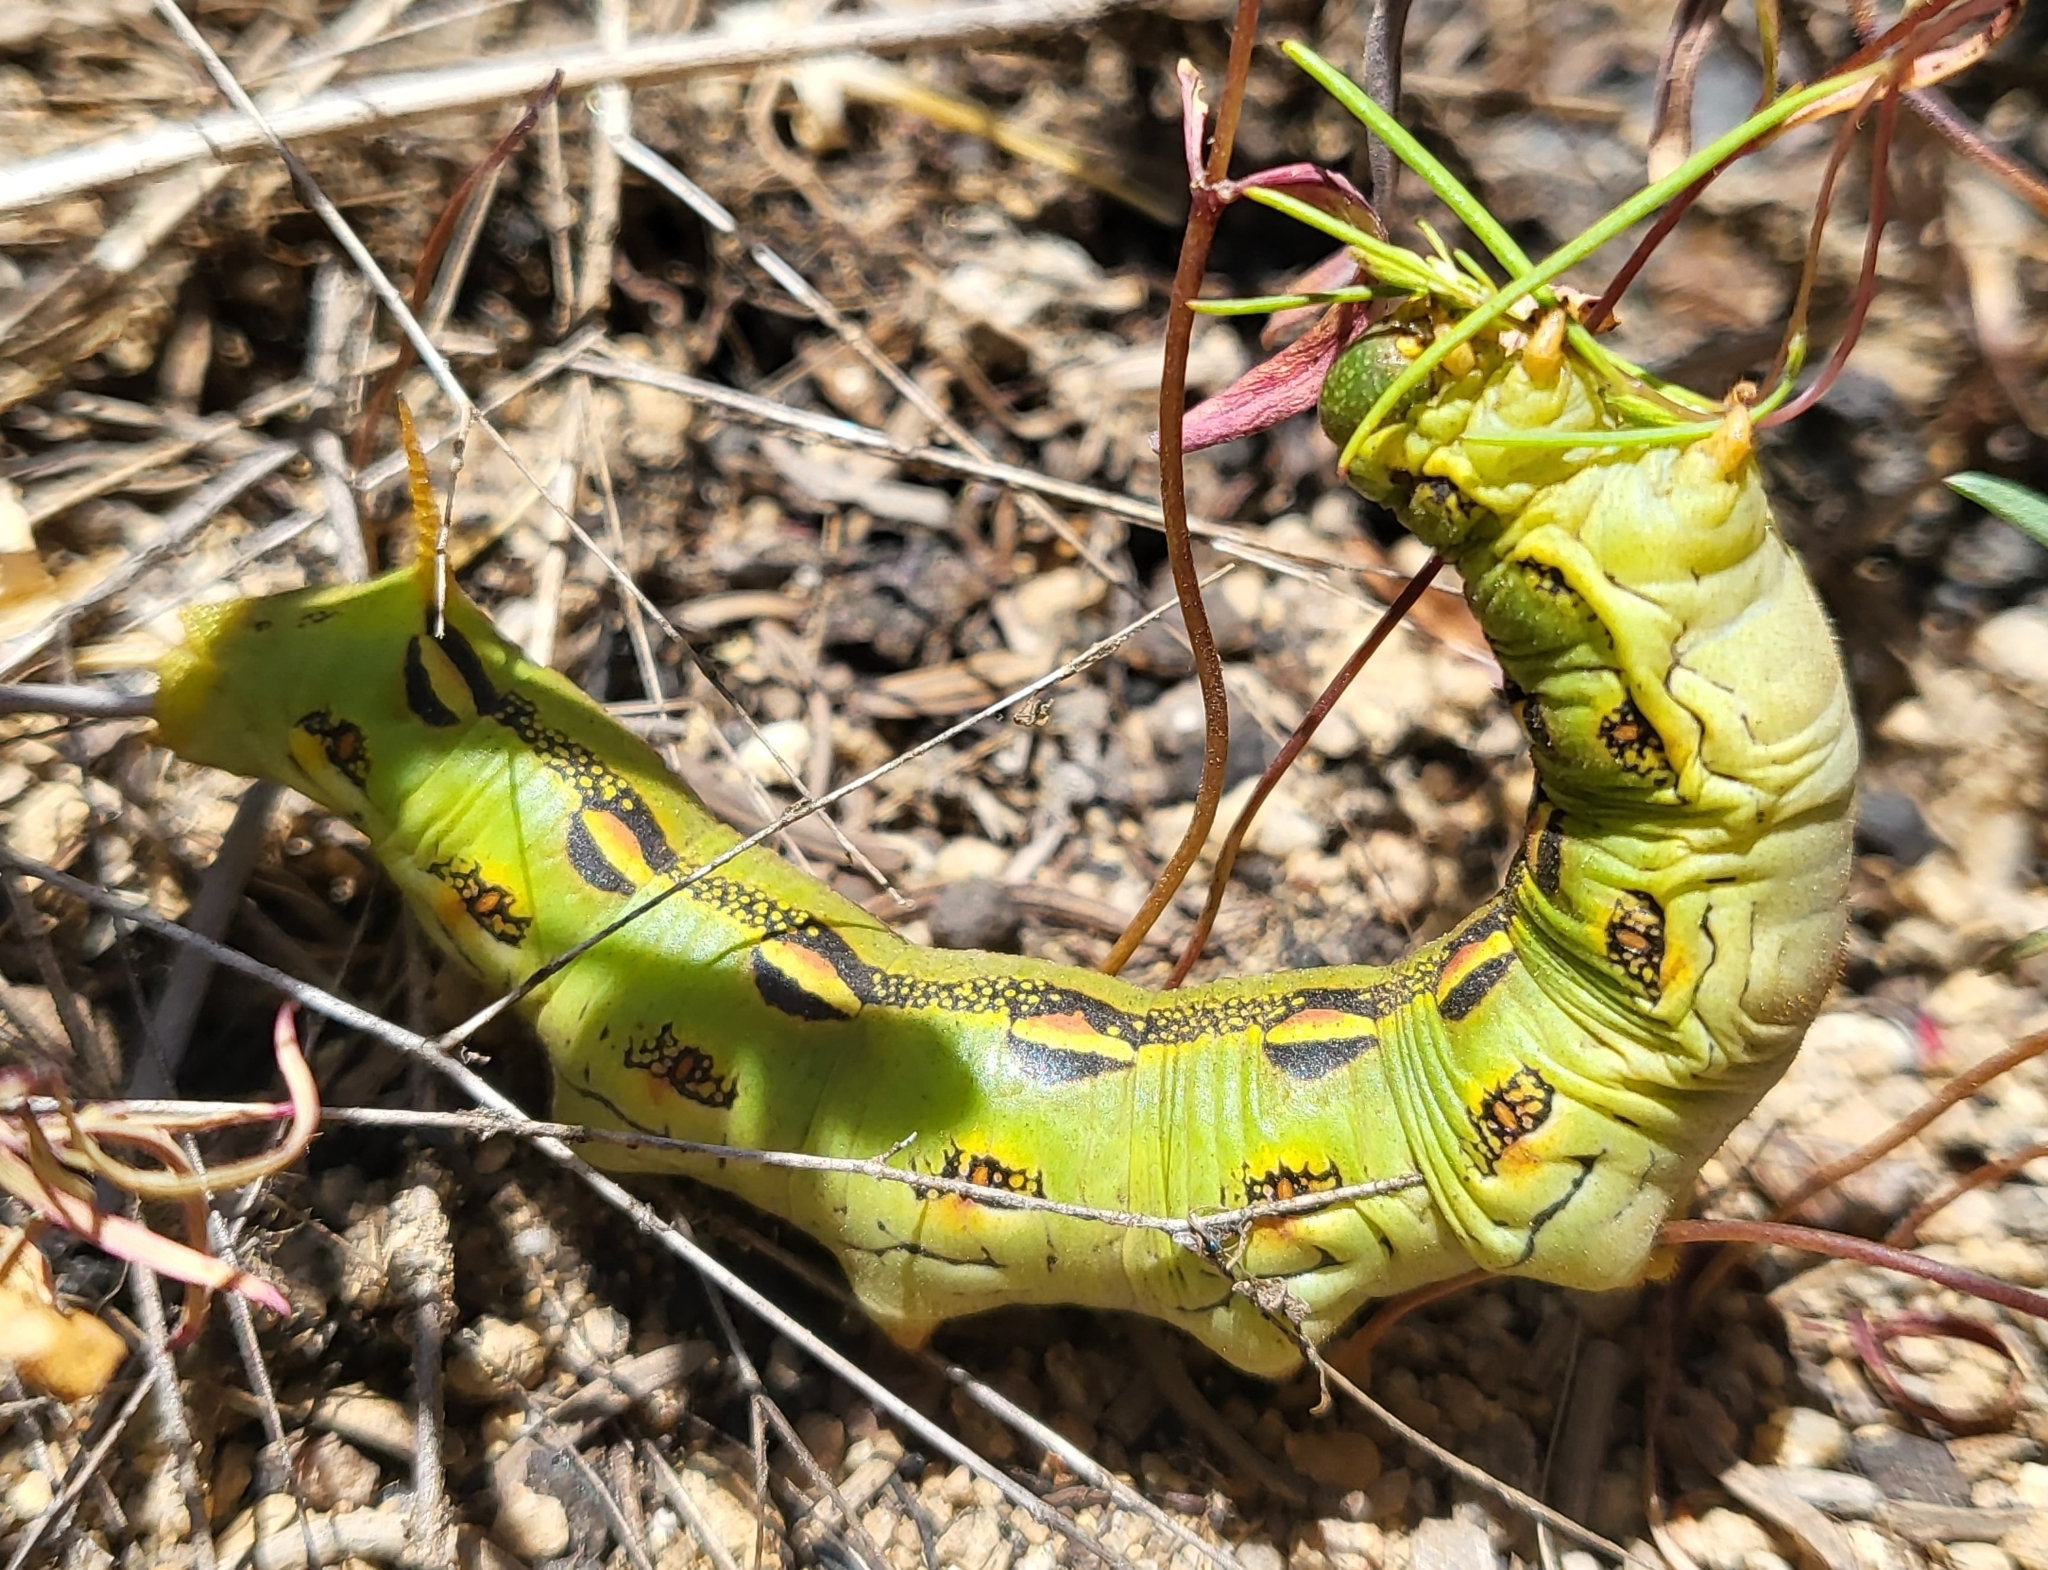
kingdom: Animalia
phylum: Arthropoda
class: Insecta
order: Lepidoptera
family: Sphingidae
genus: Hyles
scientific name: Hyles lineata
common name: White-lined sphinx
